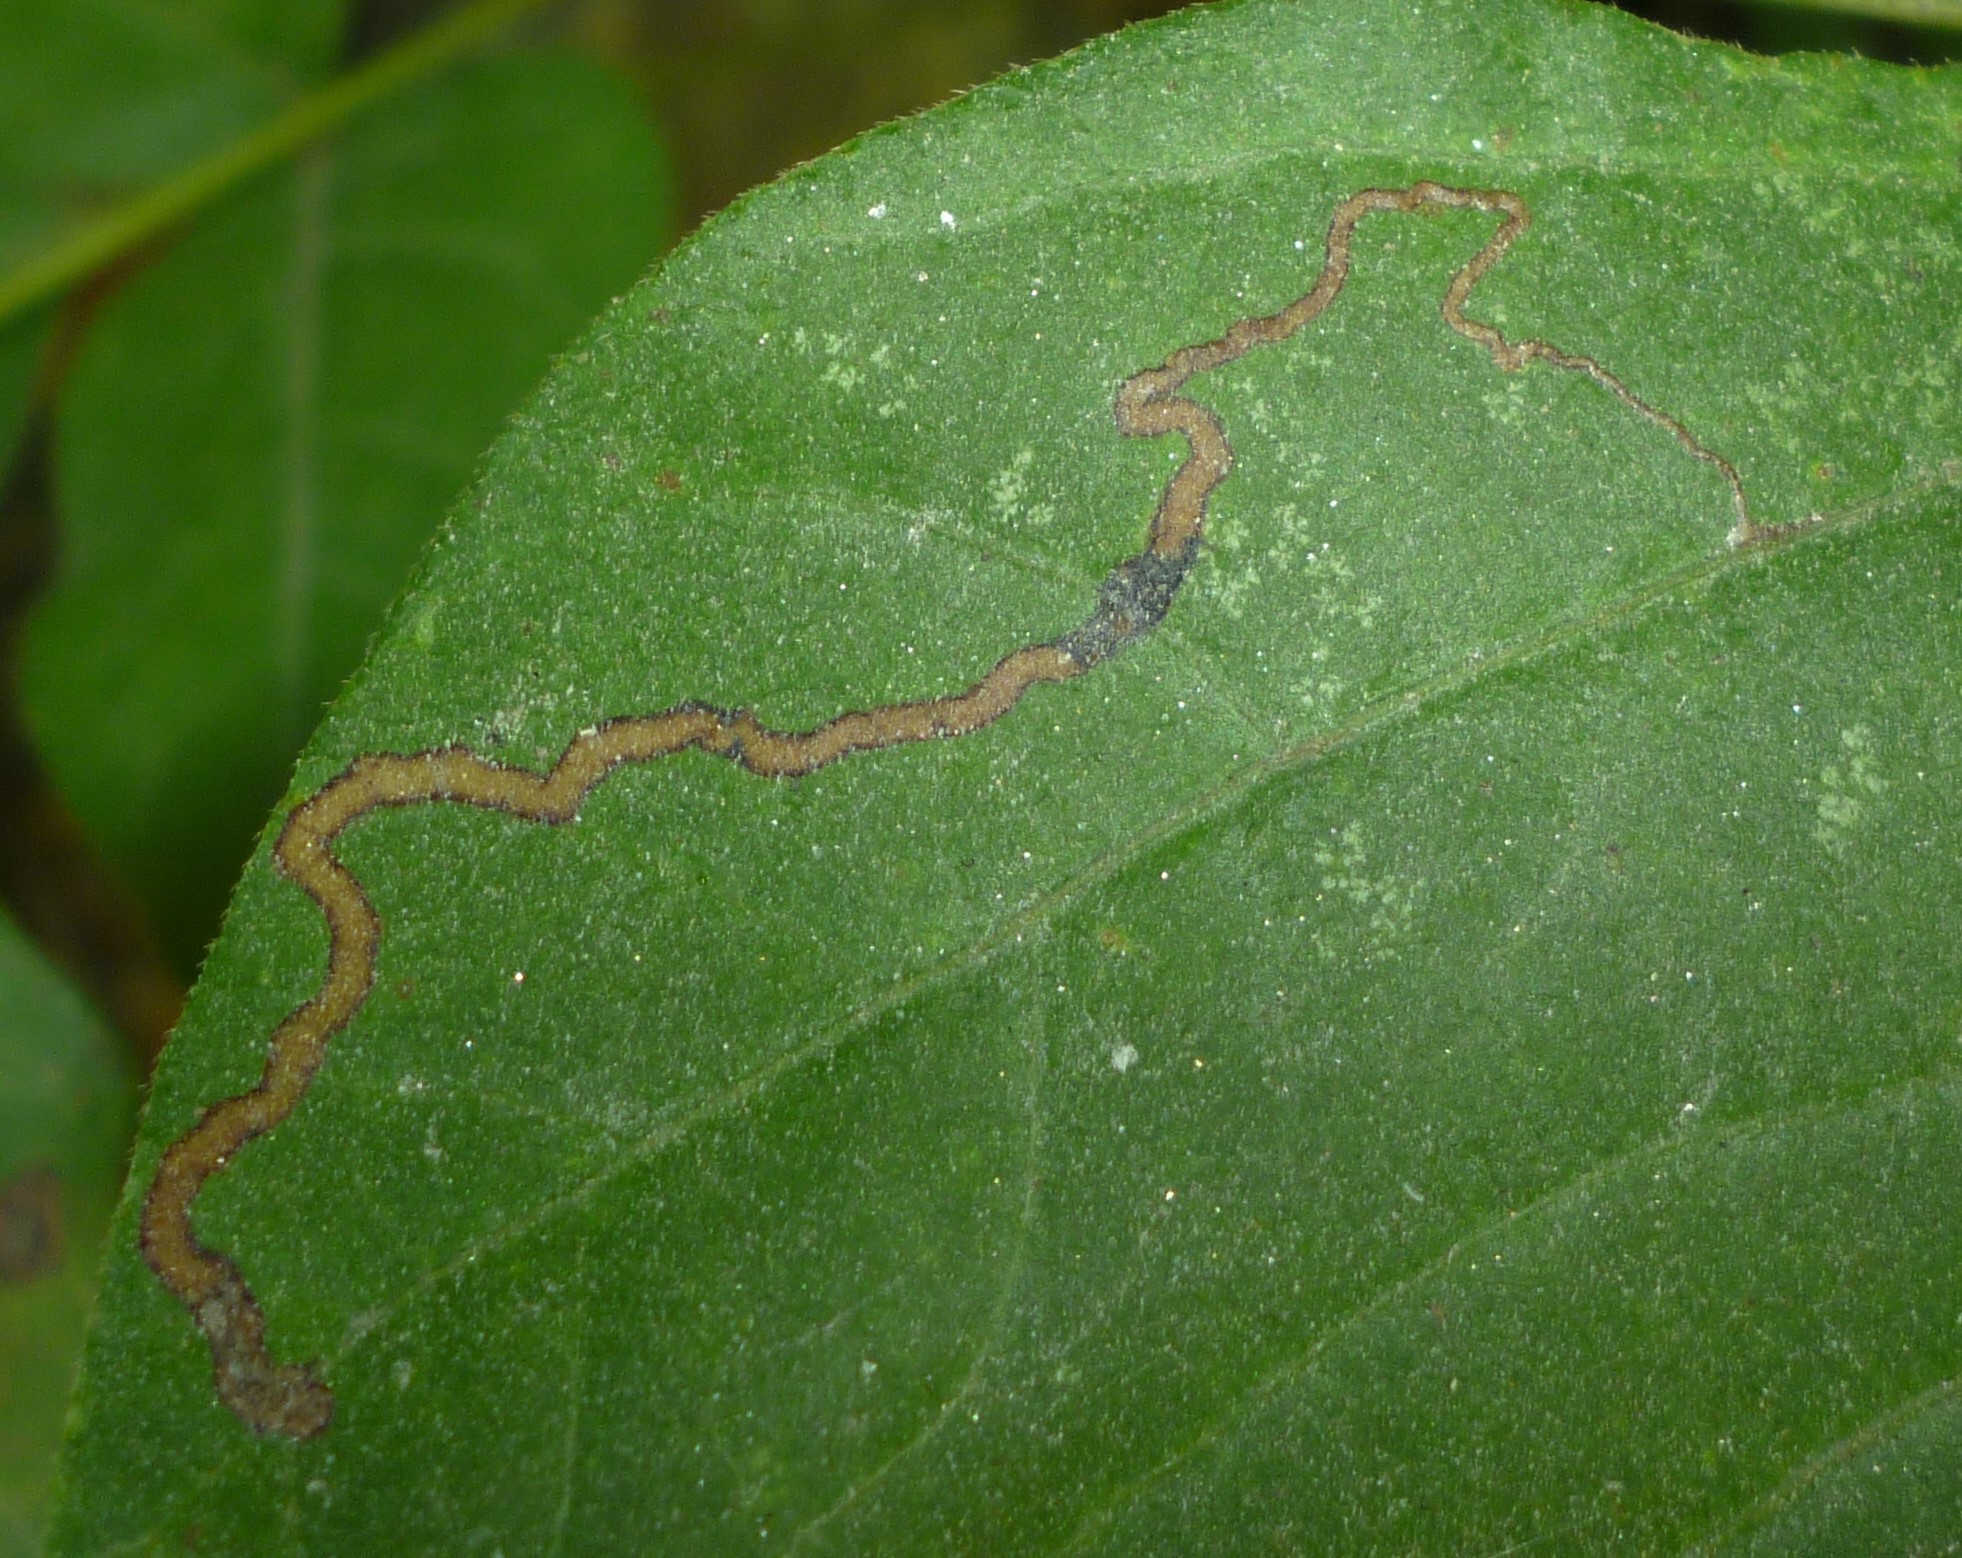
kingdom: Animalia
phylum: Arthropoda
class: Insecta
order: Lepidoptera
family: Nepticulidae
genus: Stigmella
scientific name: Stigmella rhoifoliella
